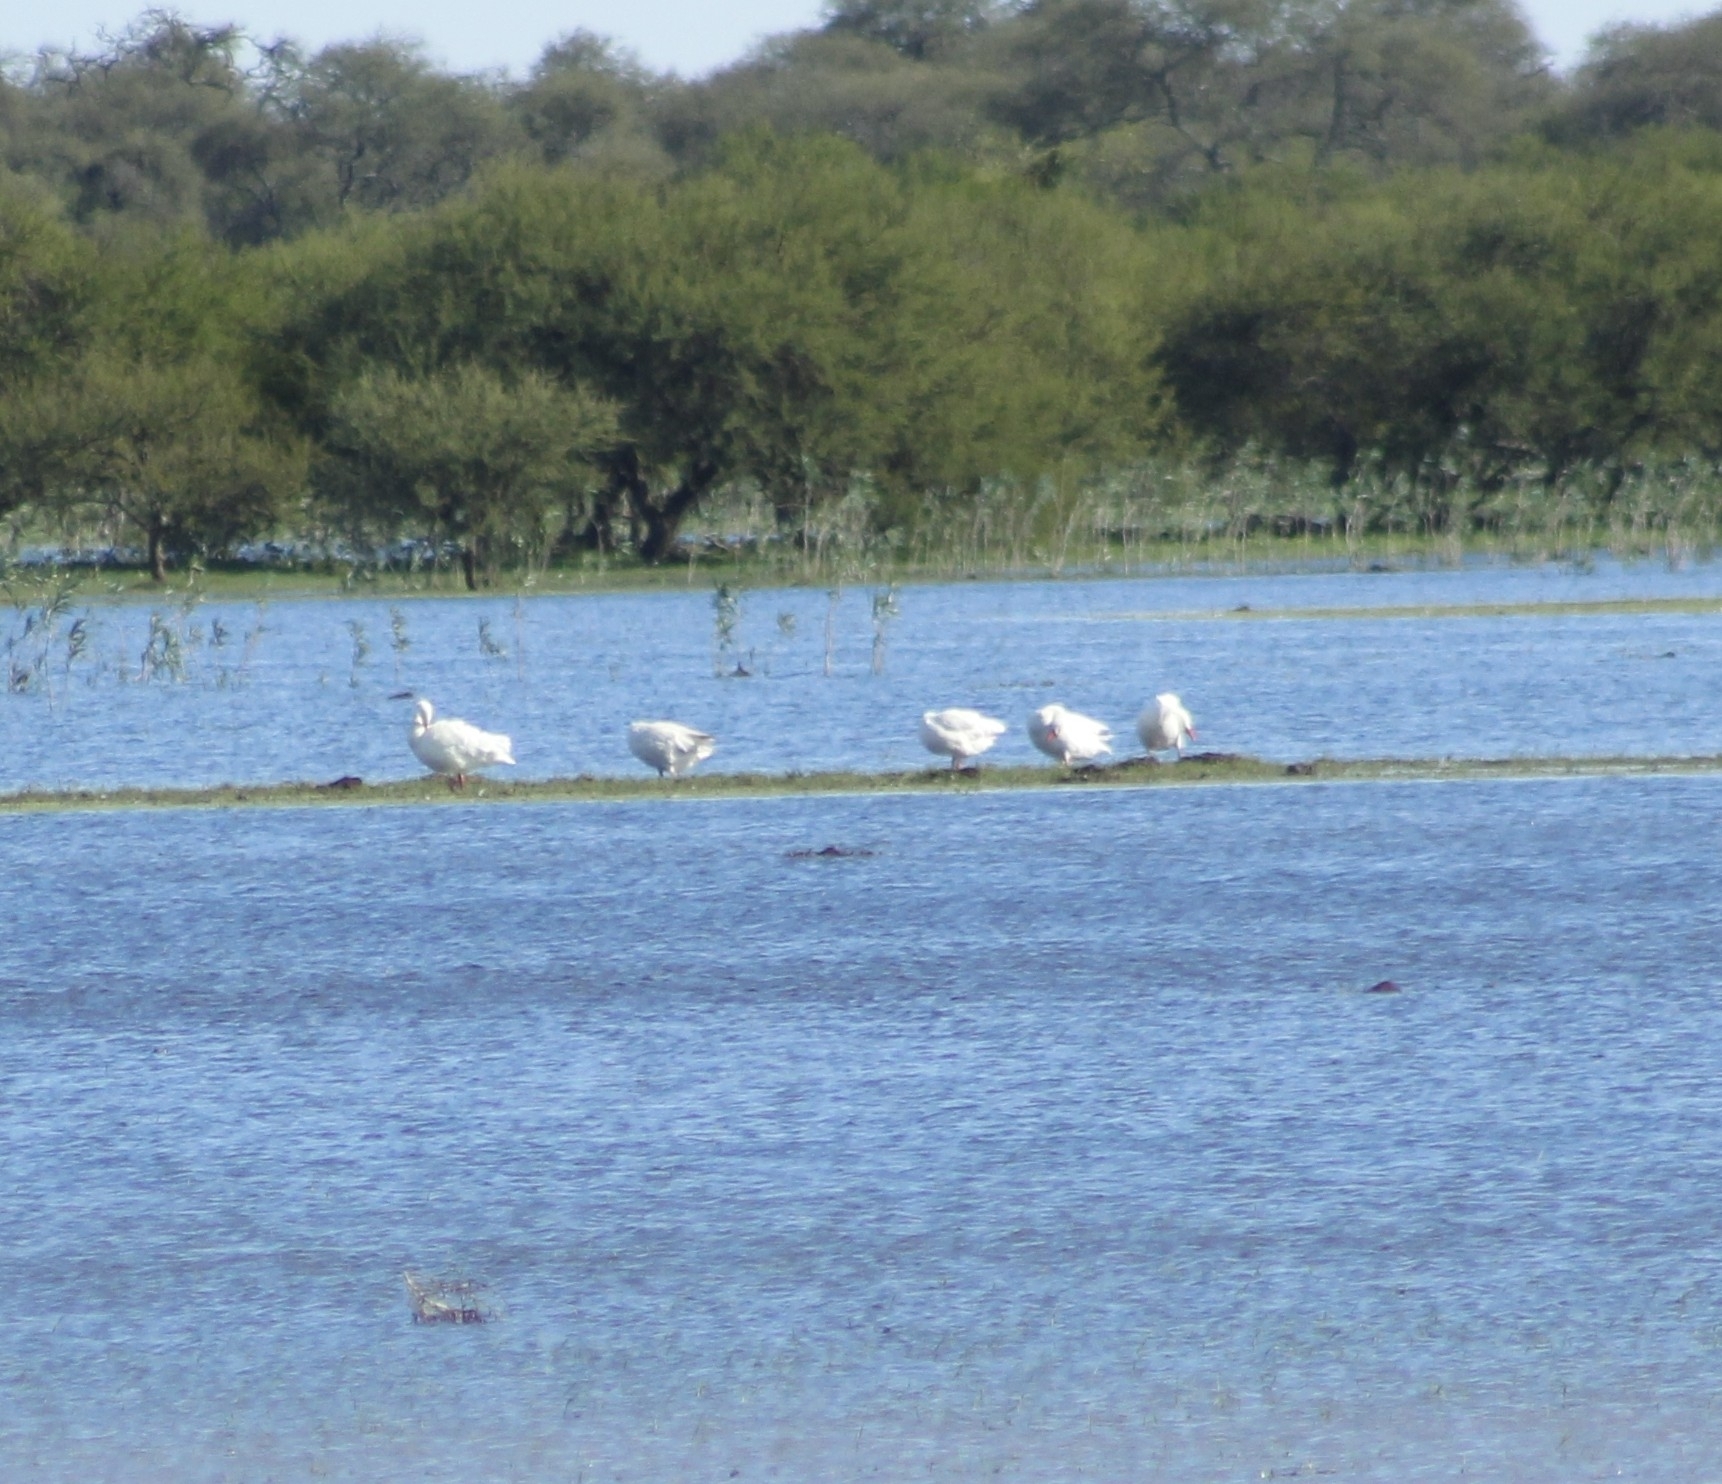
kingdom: Animalia
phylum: Chordata
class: Aves
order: Anseriformes
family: Anatidae
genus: Coscoroba
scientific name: Coscoroba coscoroba
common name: Coscoroba swan
